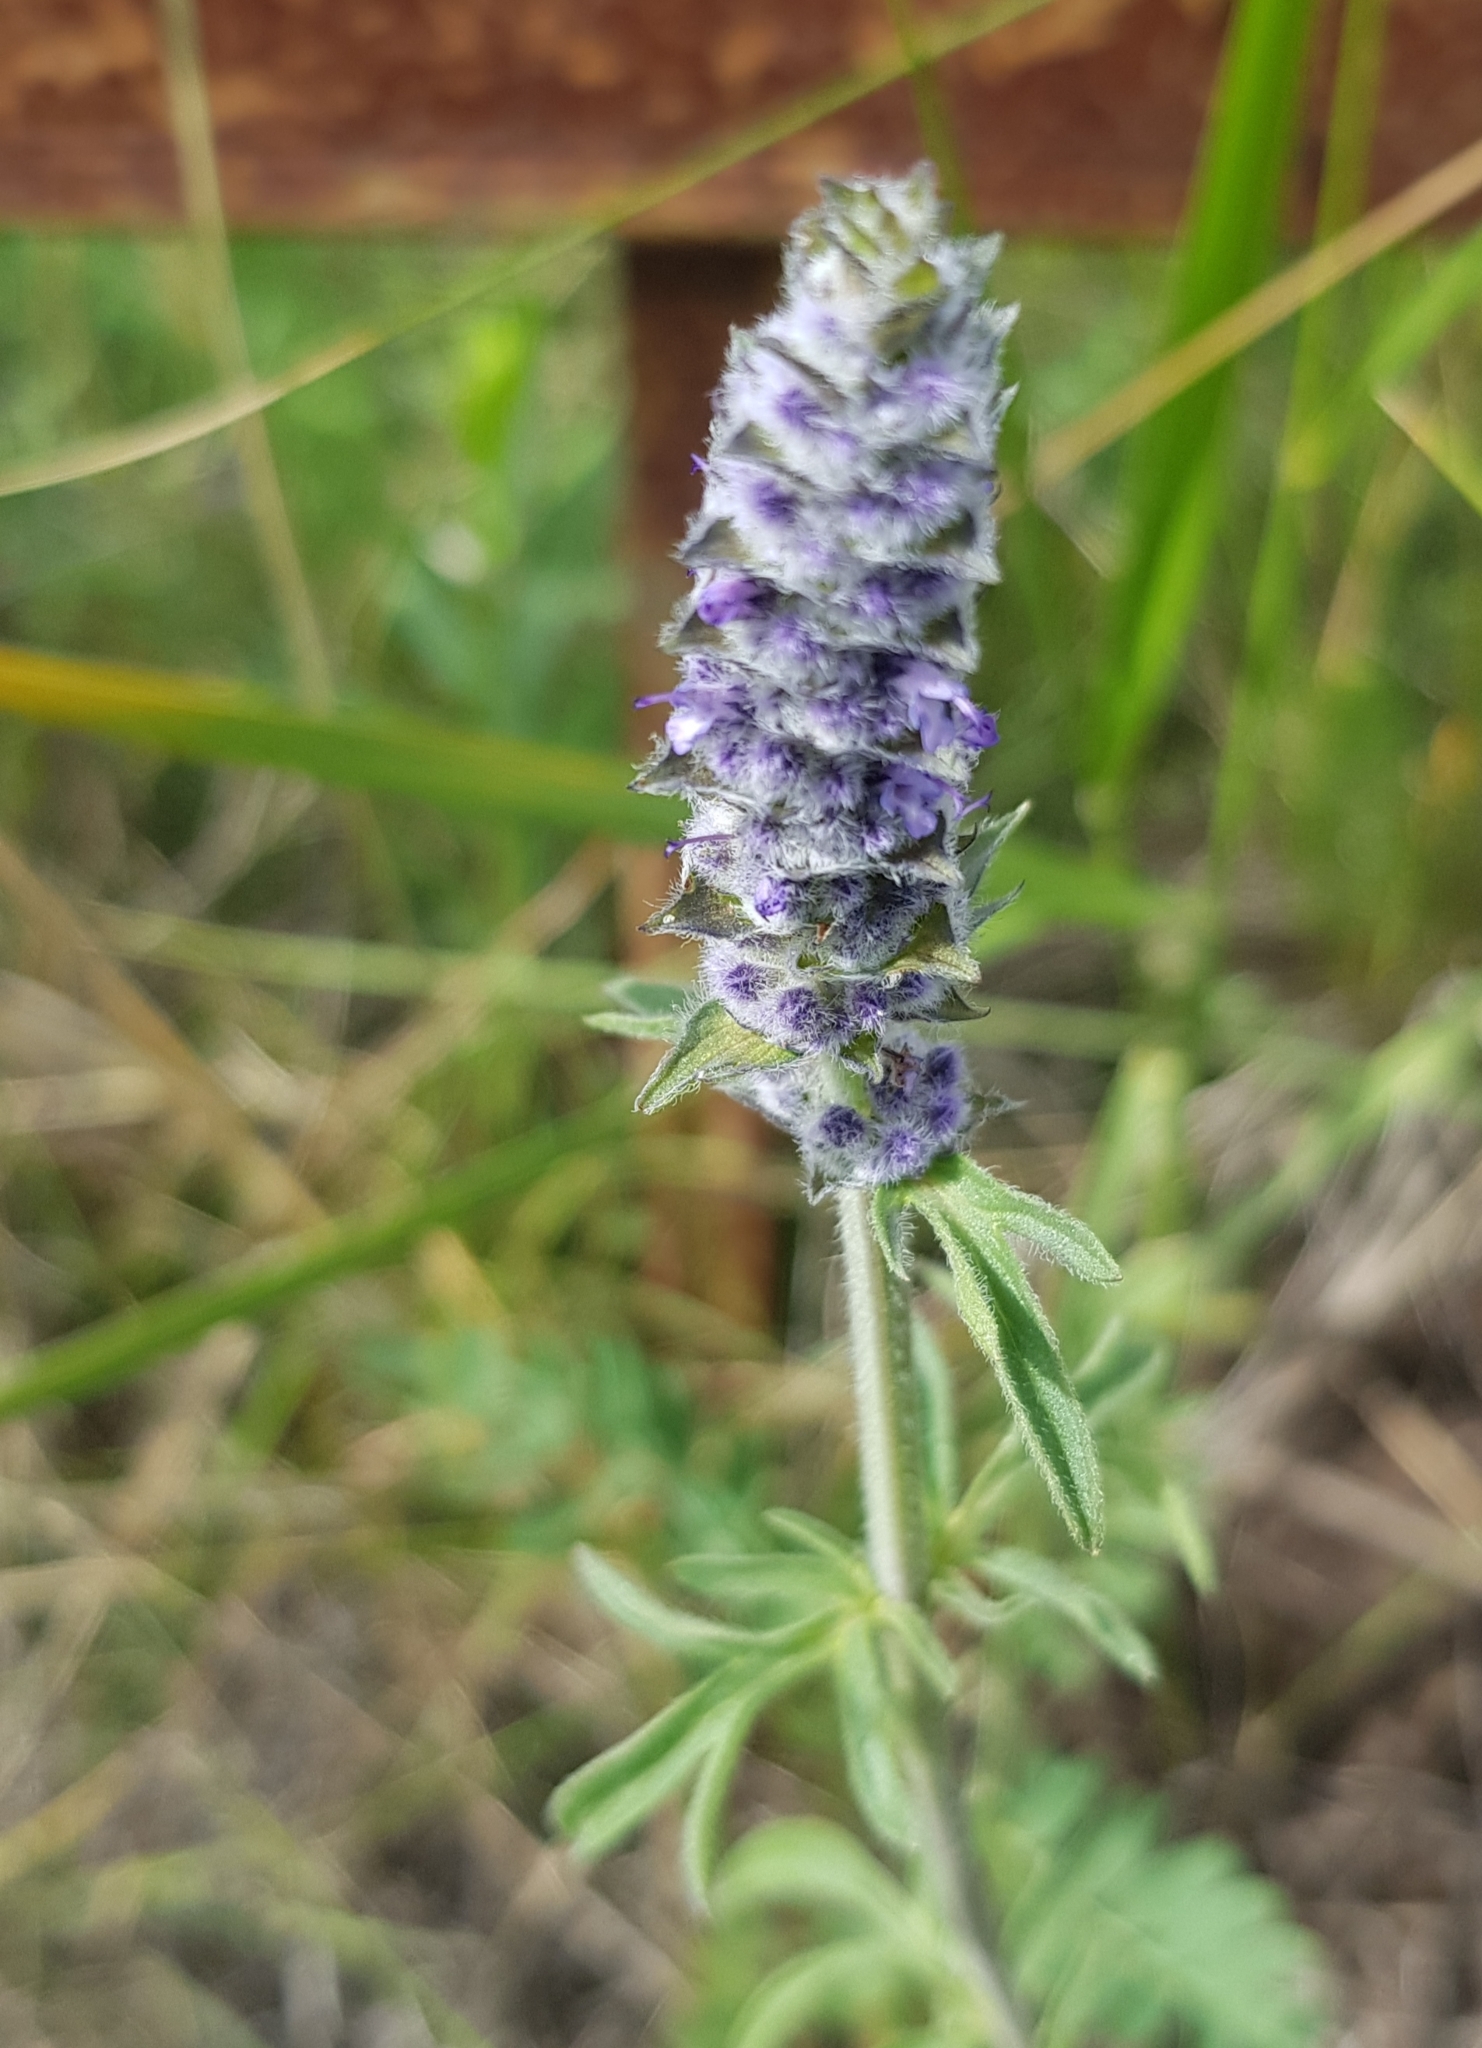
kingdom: Plantae
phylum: Tracheophyta
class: Magnoliopsida
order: Lamiales
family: Lamiaceae
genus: Nepeta
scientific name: Nepeta multifida
